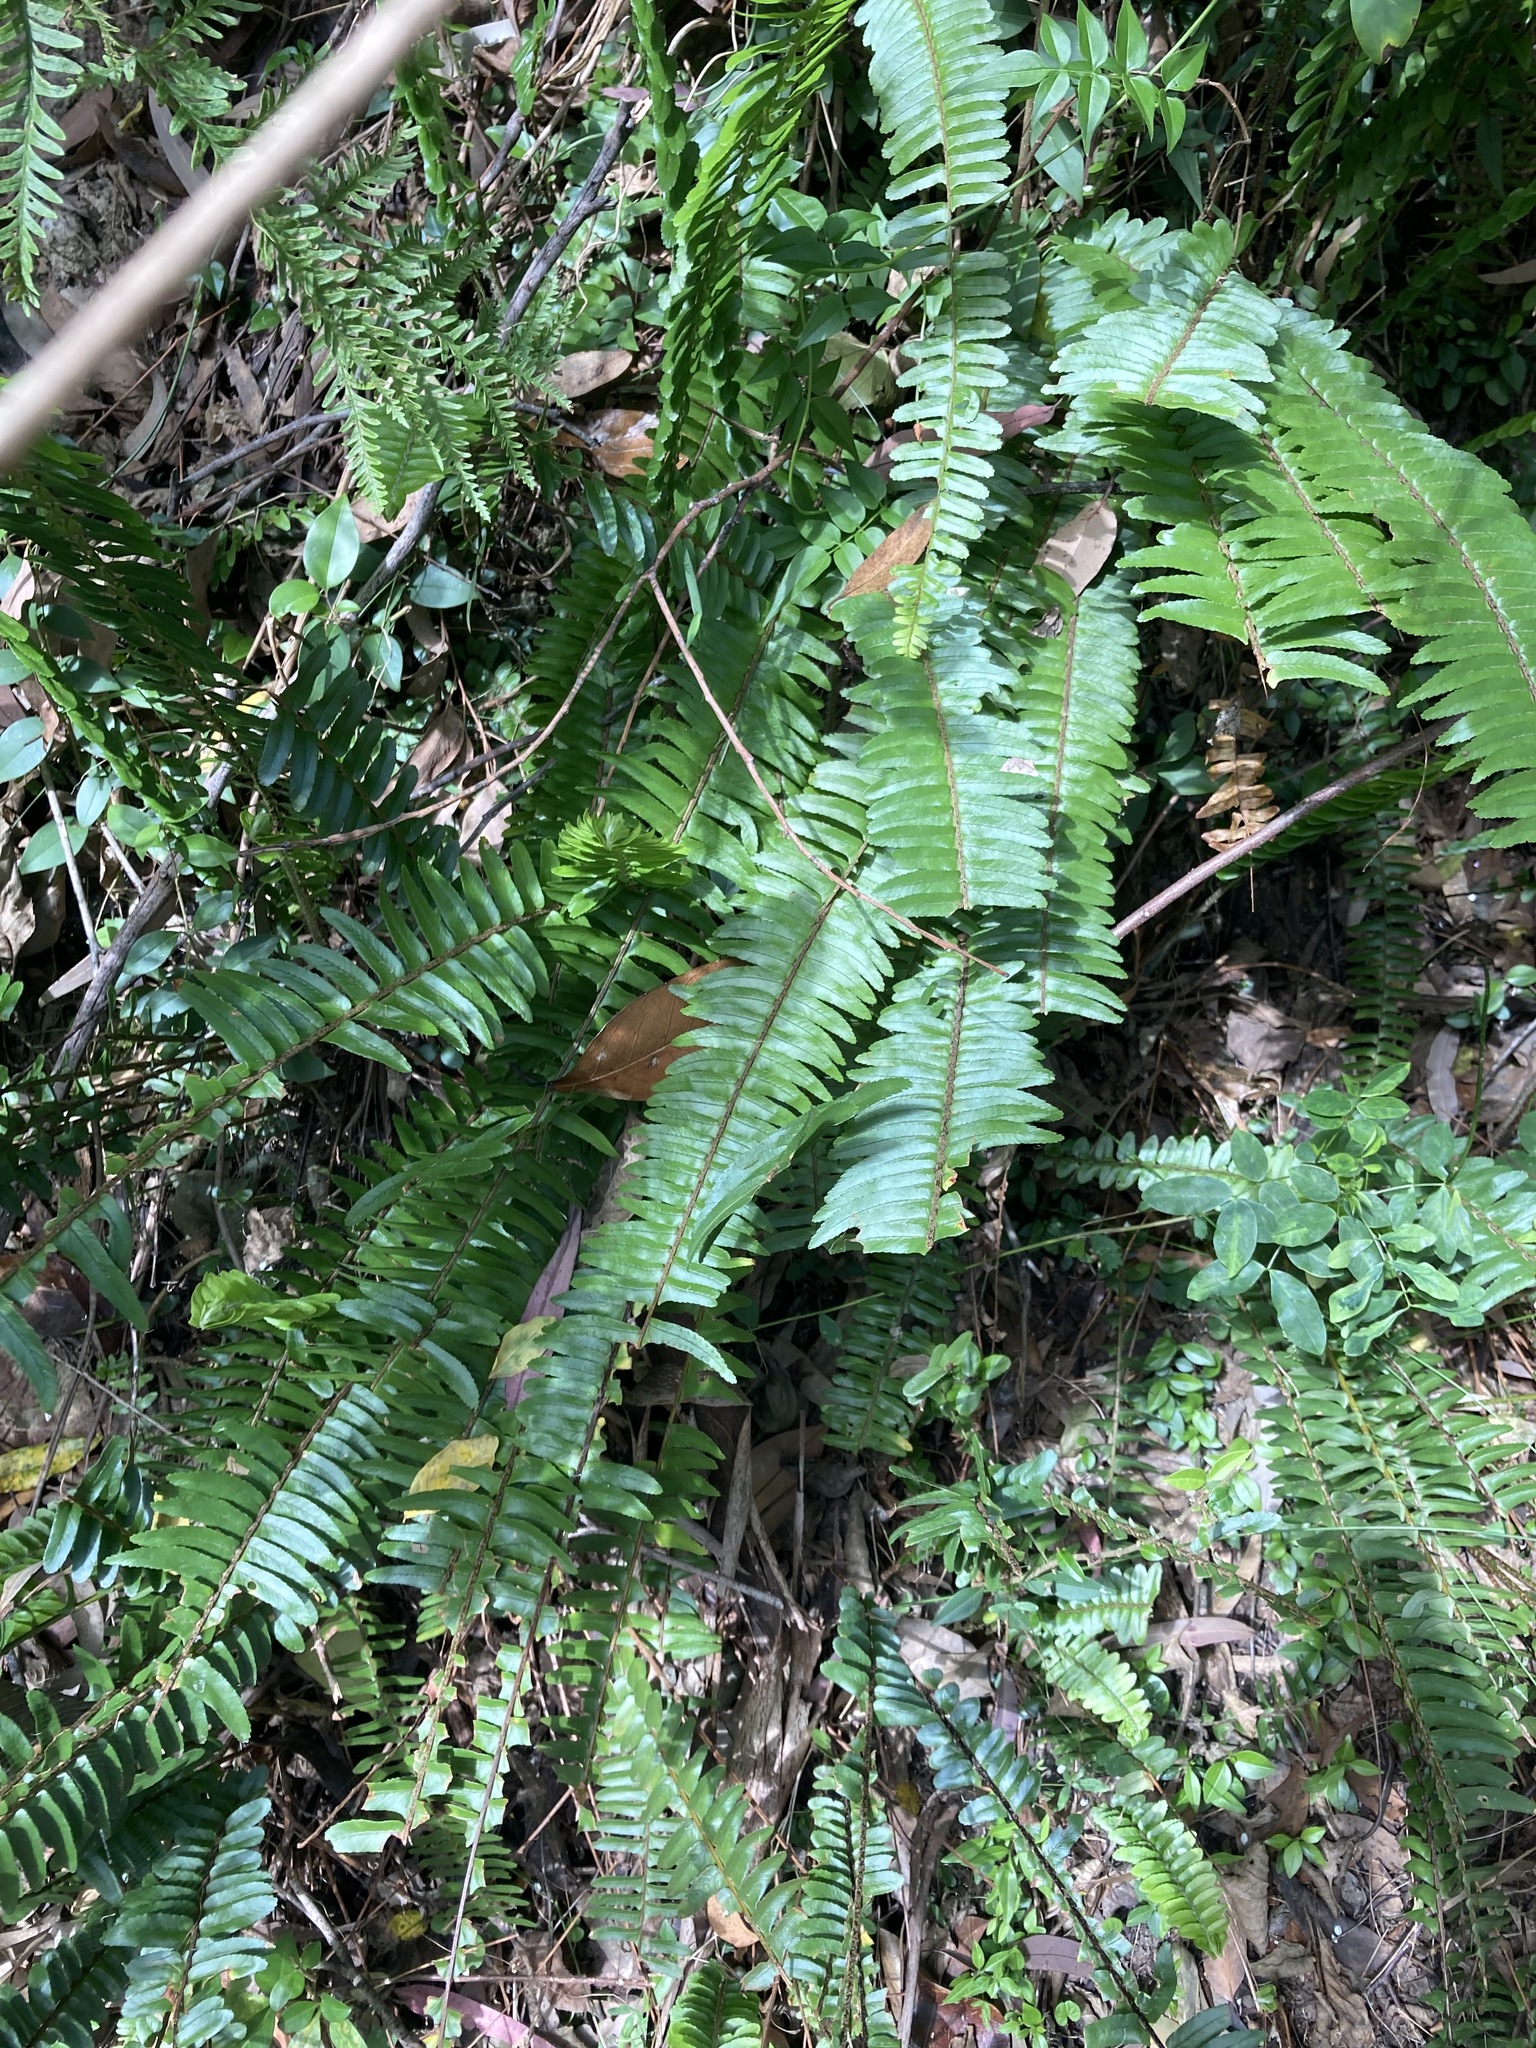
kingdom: Plantae
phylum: Tracheophyta
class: Polypodiopsida
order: Polypodiales
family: Nephrolepidaceae
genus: Nephrolepis
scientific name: Nephrolepis cordifolia
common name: Narrow swordfern
